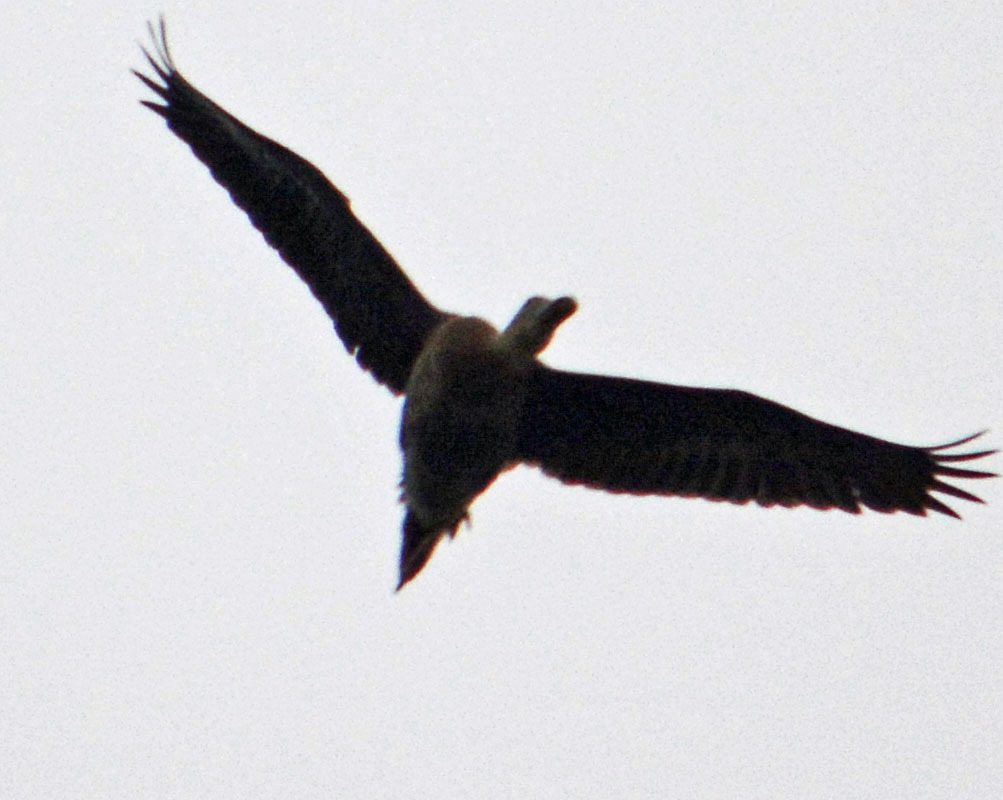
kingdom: Animalia
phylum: Chordata
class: Aves
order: Anseriformes
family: Anatidae
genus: Dendrocygna
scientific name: Dendrocygna autumnalis
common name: Black-bellied whistling duck
